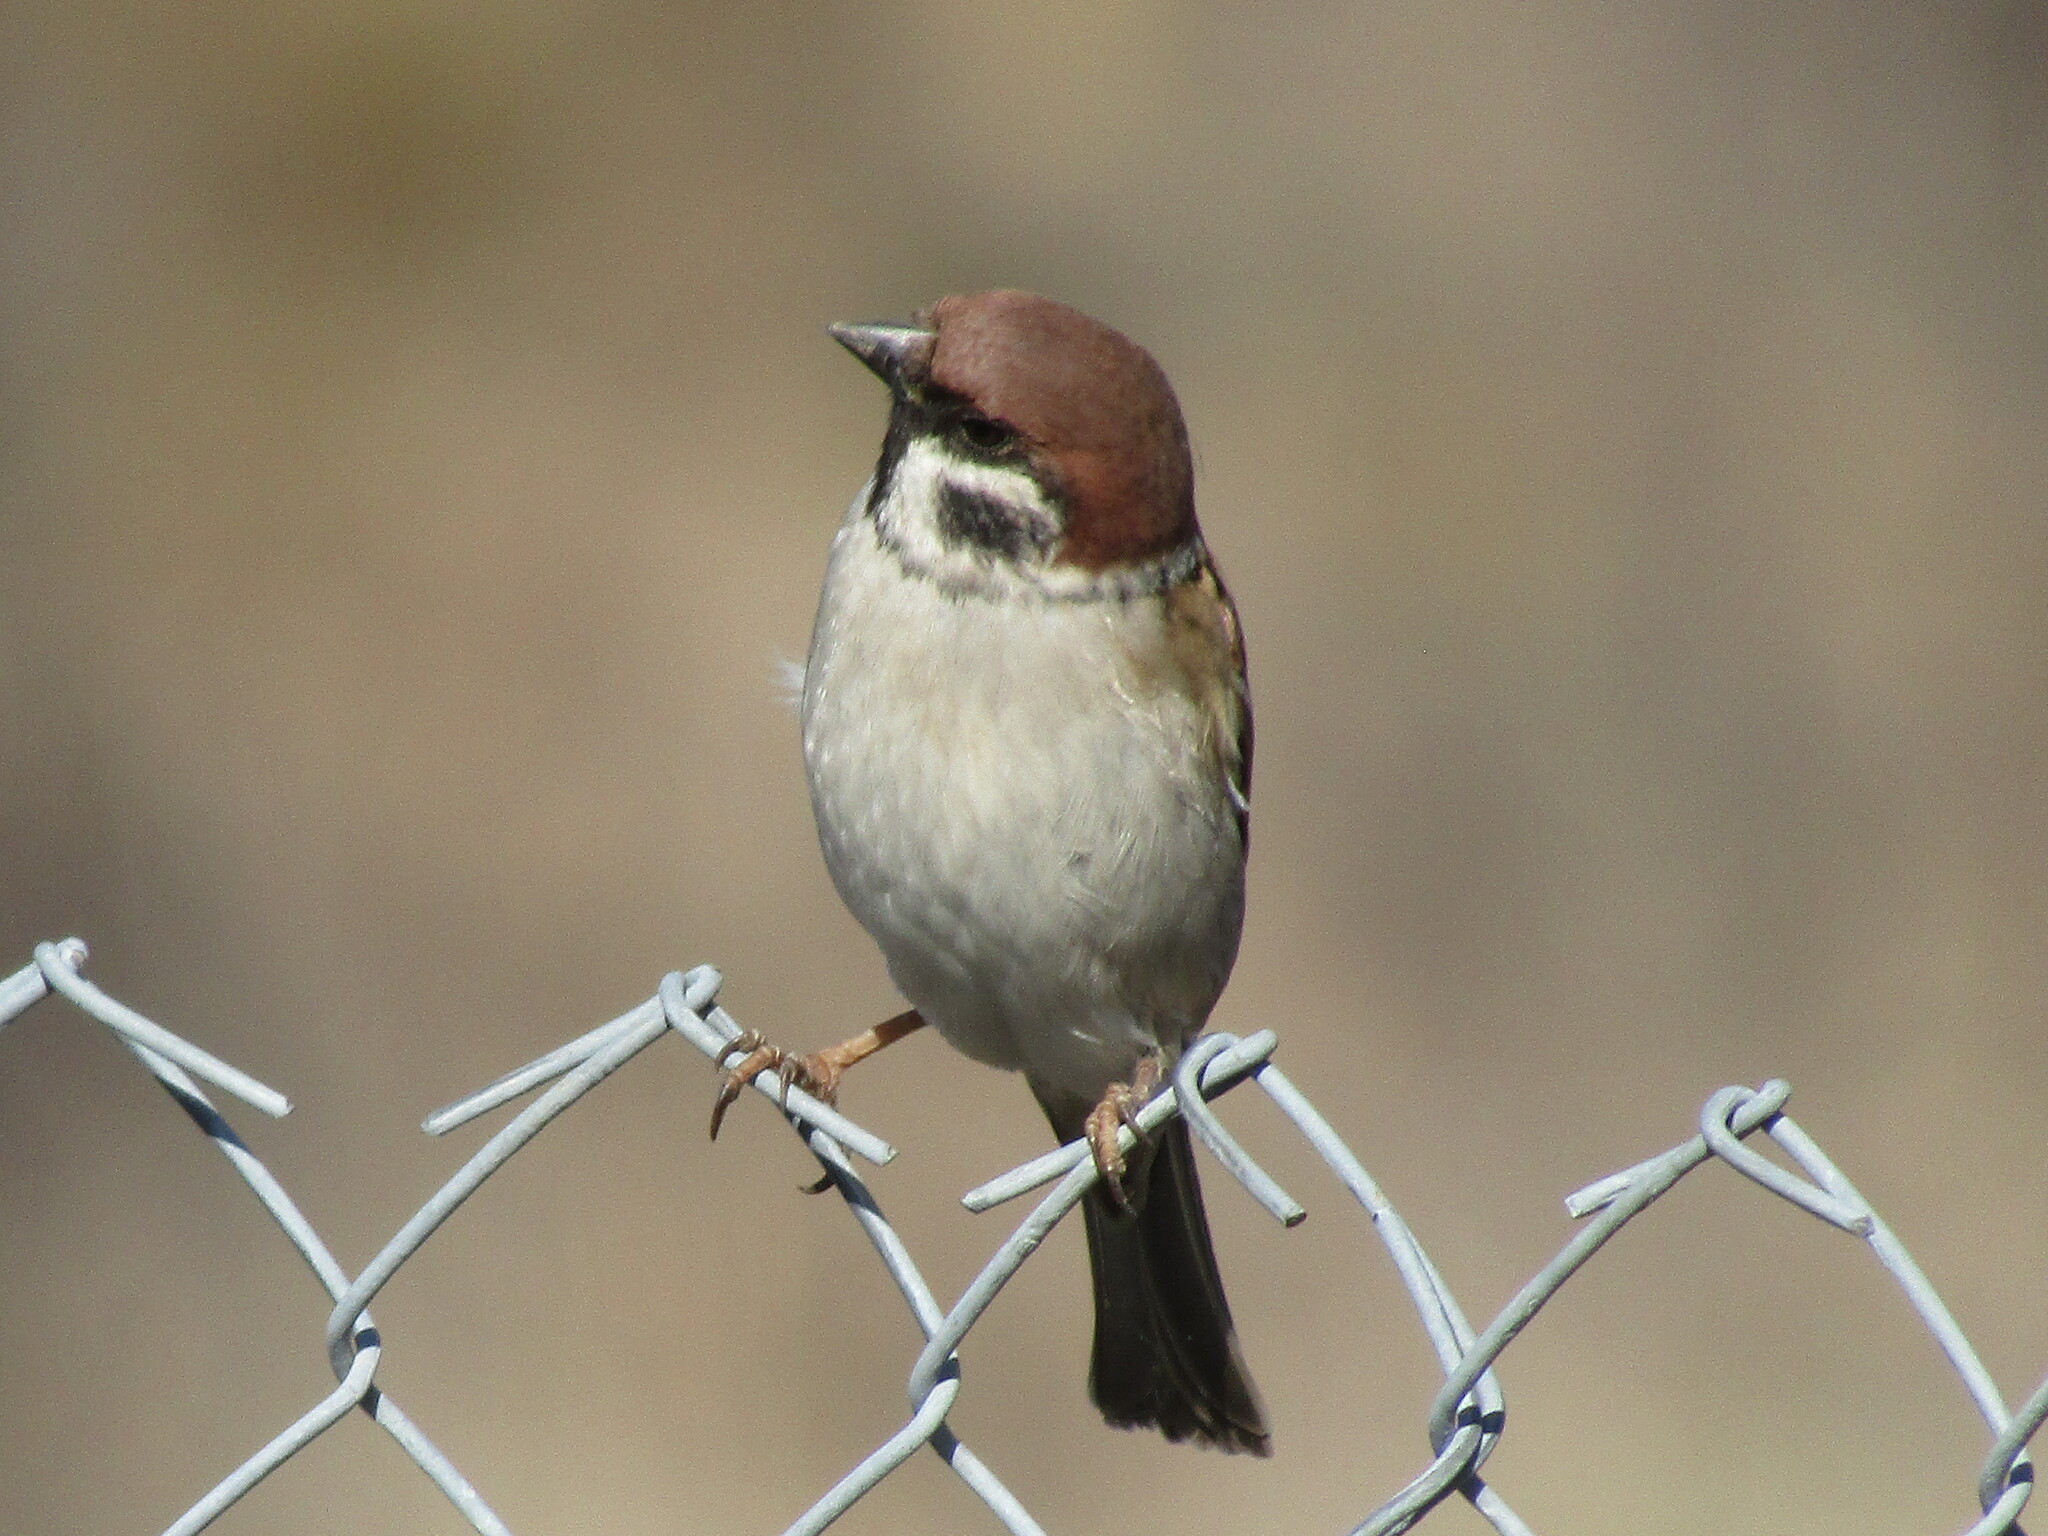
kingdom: Animalia
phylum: Chordata
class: Aves
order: Passeriformes
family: Passeridae
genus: Passer
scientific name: Passer montanus
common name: Eurasian tree sparrow
